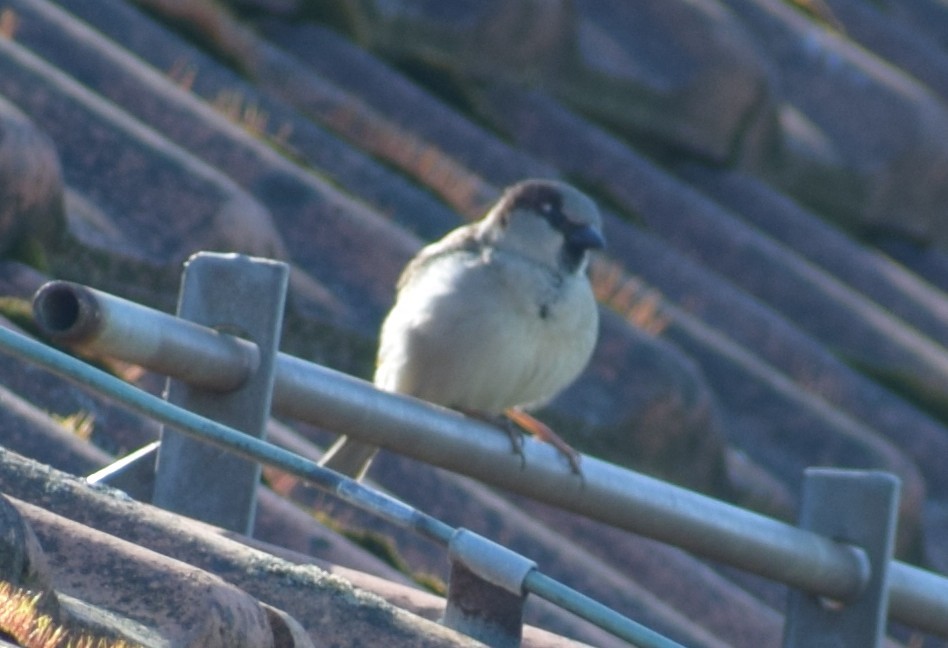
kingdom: Animalia
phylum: Chordata
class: Aves
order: Passeriformes
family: Passeridae
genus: Passer
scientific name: Passer domesticus
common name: House sparrow
